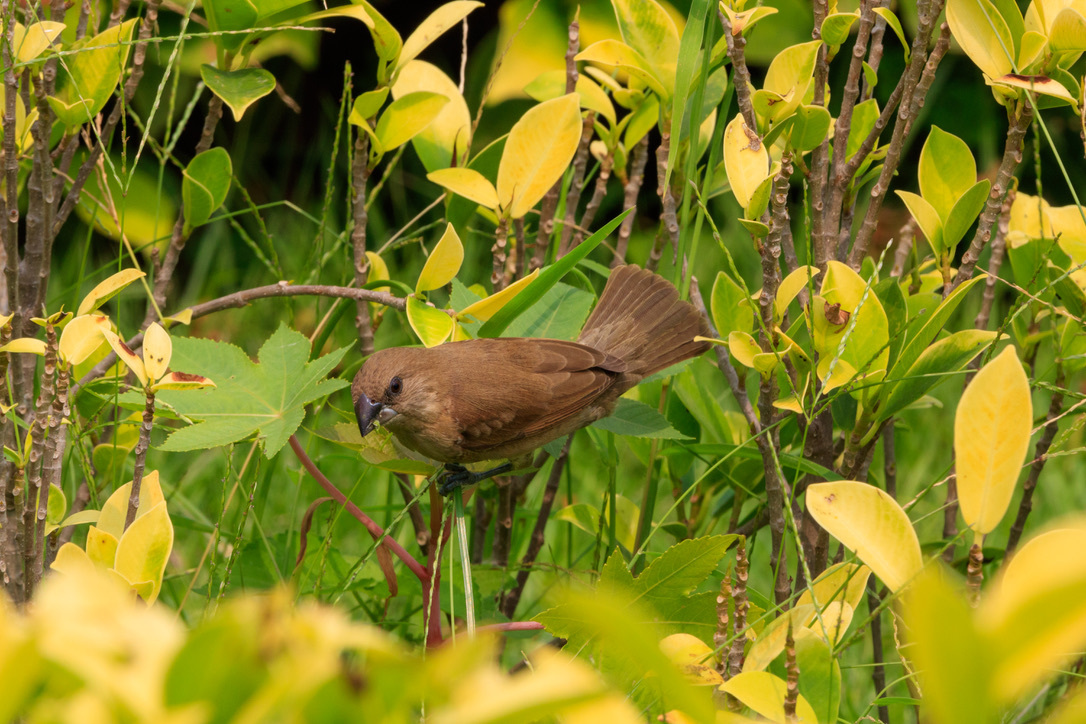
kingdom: Animalia
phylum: Chordata
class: Aves
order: Passeriformes
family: Estrildidae
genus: Lonchura
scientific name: Lonchura punctulata
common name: Scaly-breasted munia
